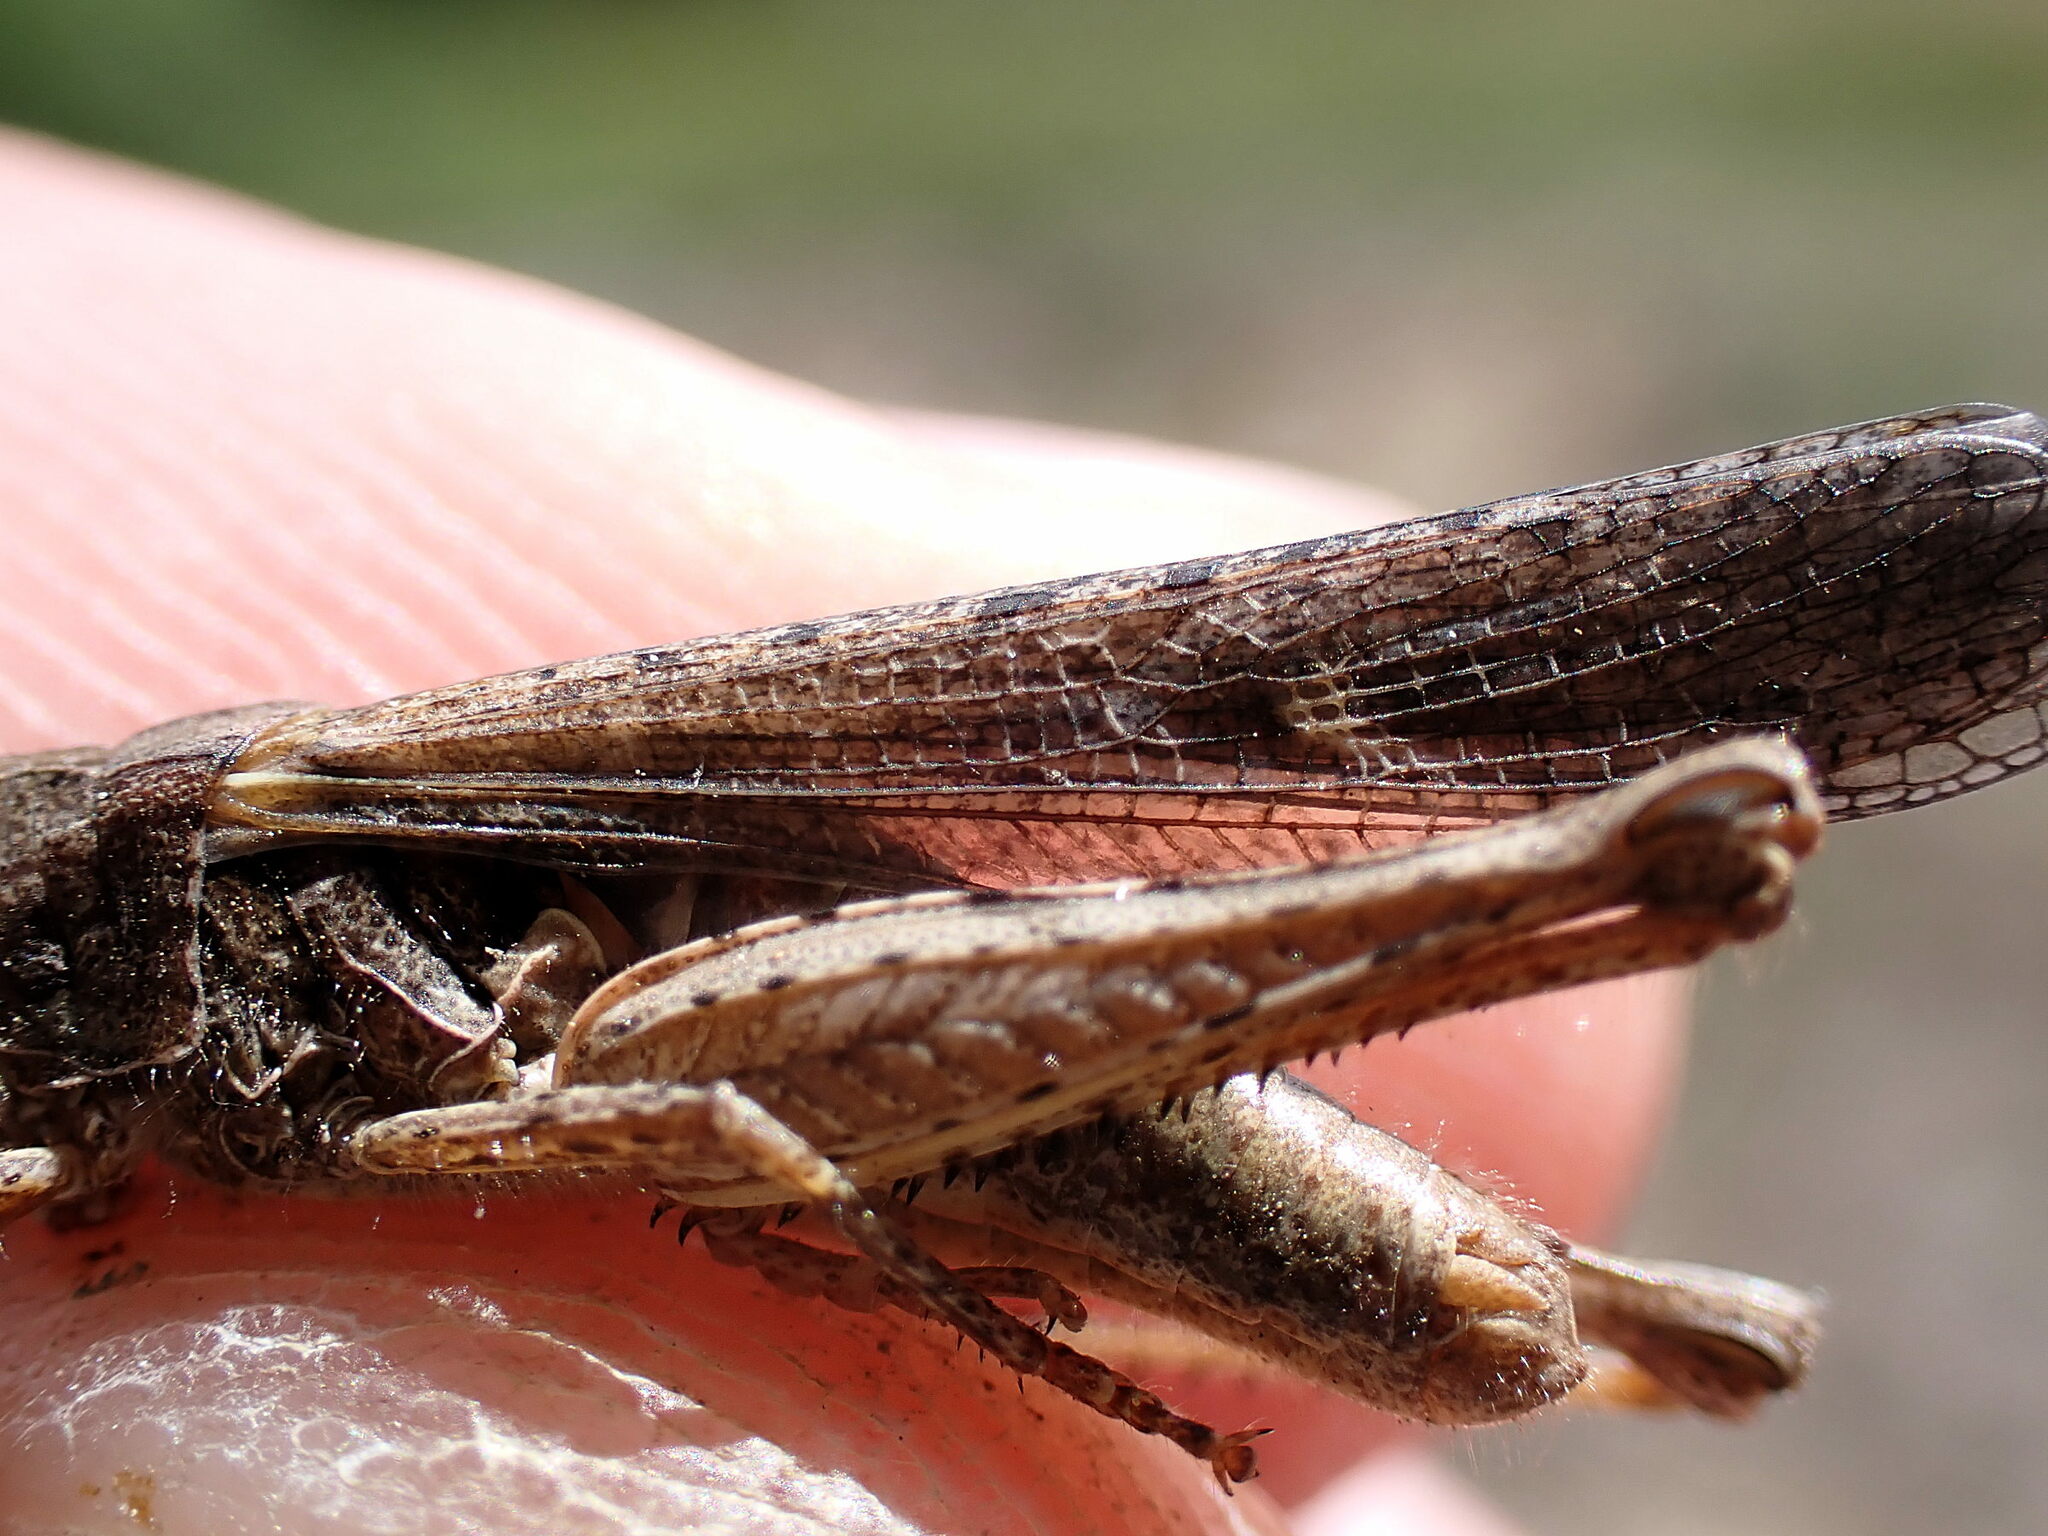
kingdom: Animalia
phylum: Arthropoda
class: Insecta
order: Orthoptera
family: Acrididae
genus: Chorthippus
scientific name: Chorthippus brunneus
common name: Field grasshopper
